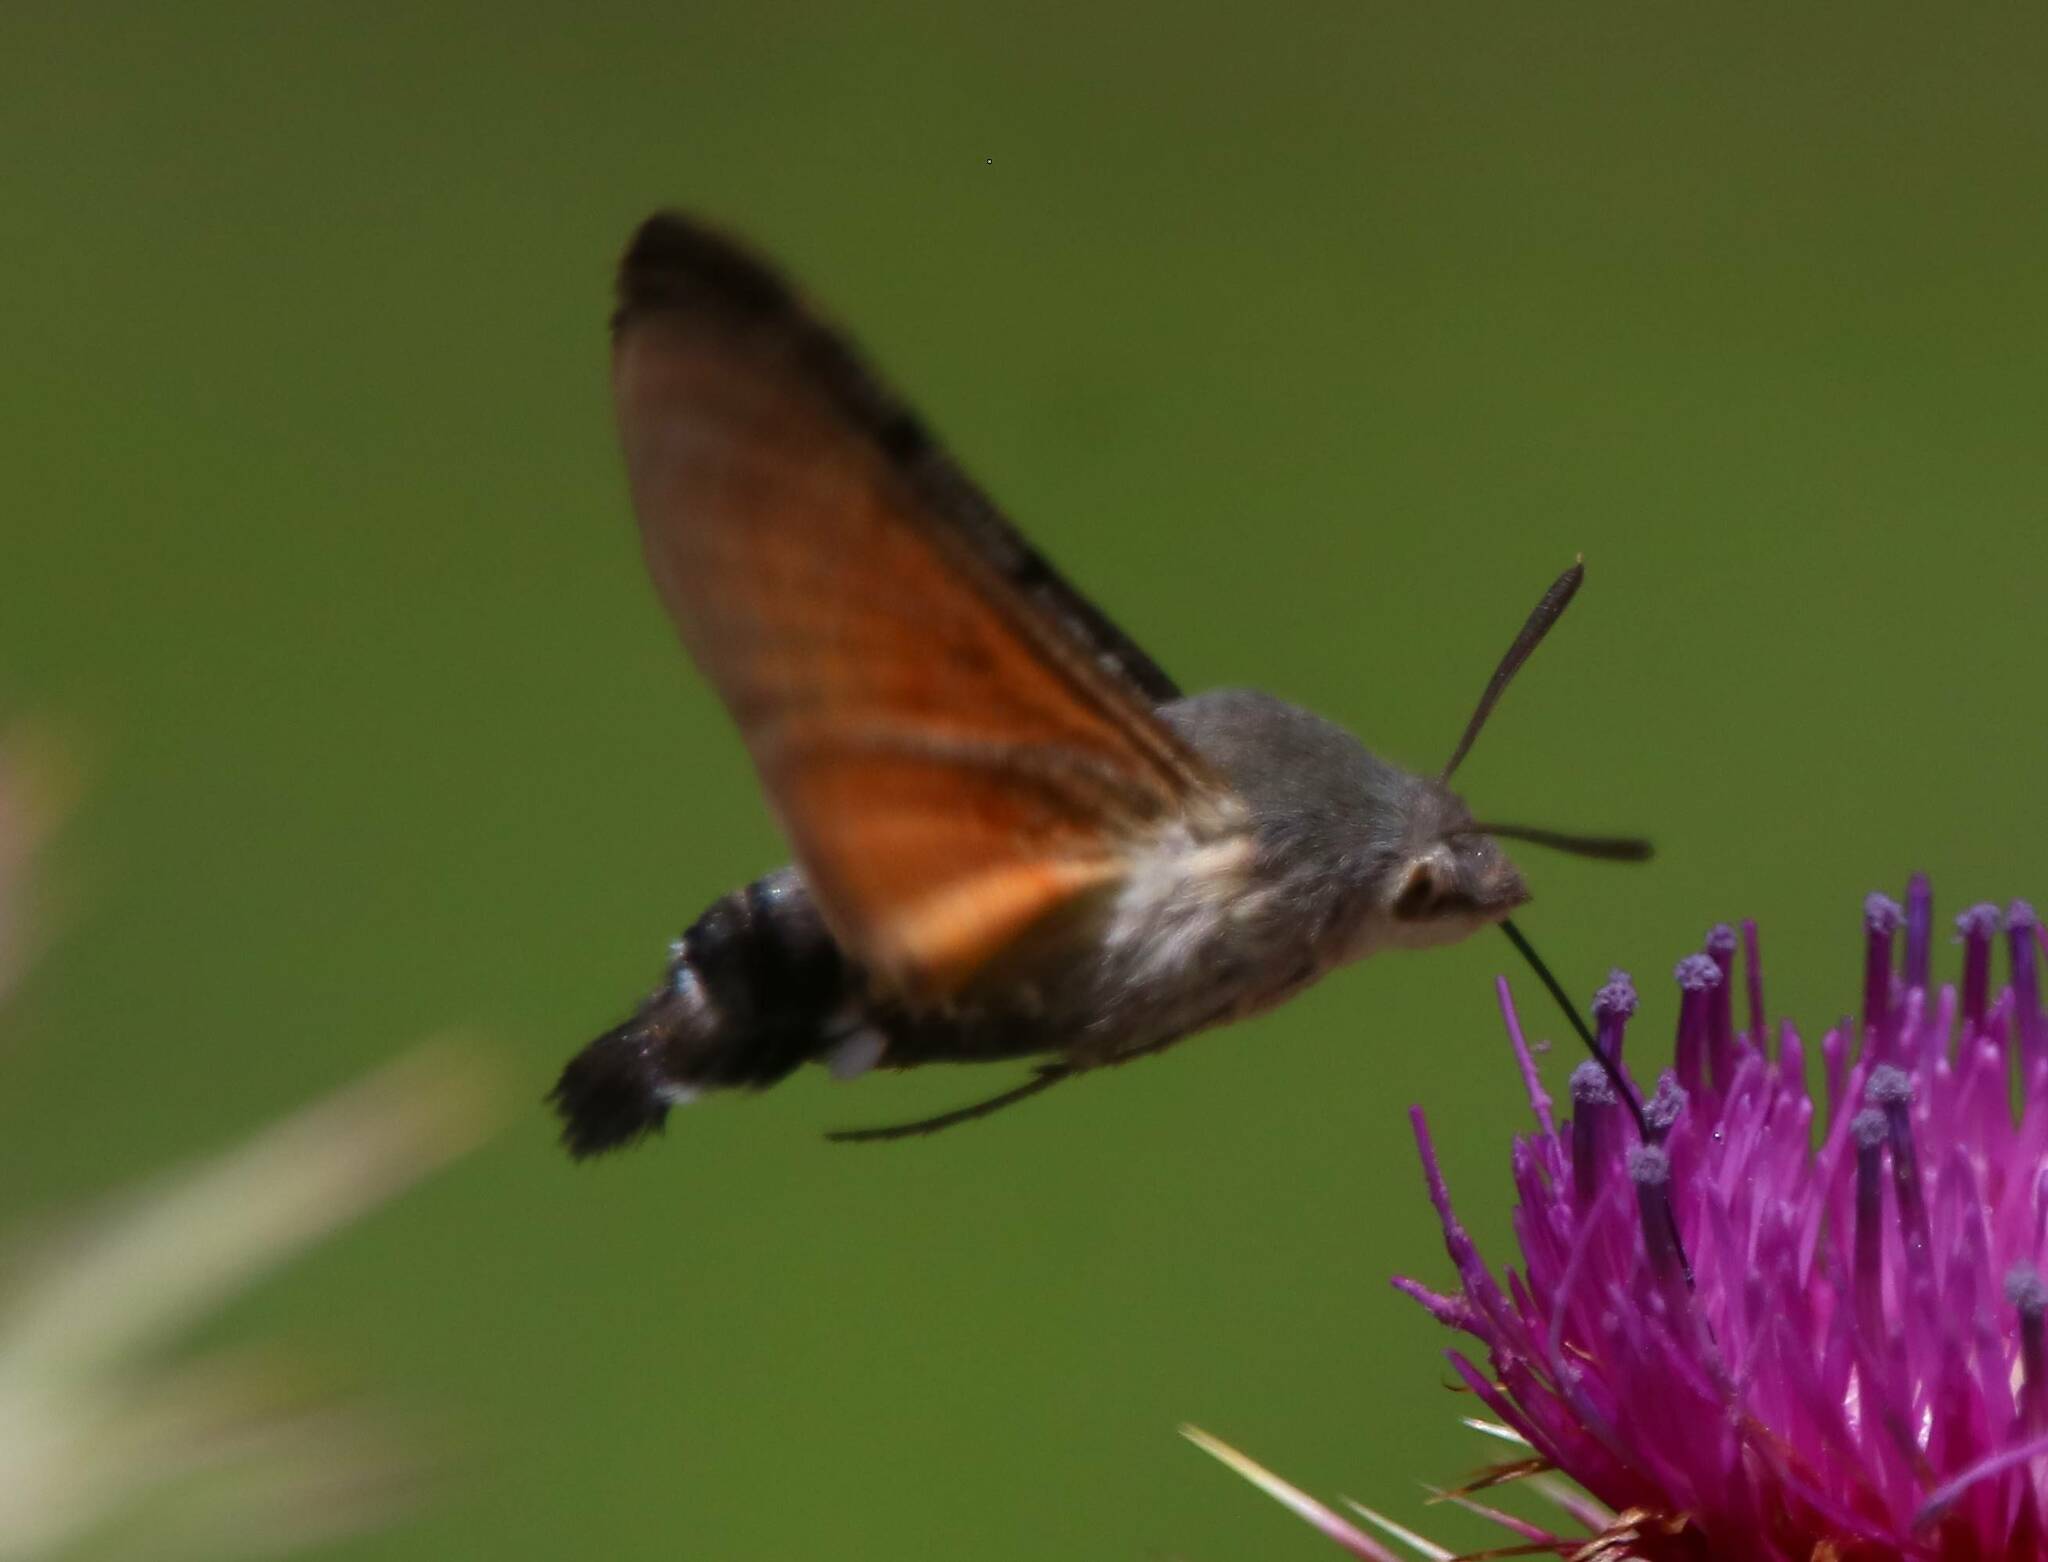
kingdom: Animalia
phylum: Arthropoda
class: Insecta
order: Lepidoptera
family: Sphingidae
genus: Macroglossum
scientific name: Macroglossum stellatarum
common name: Humming-bird hawk-moth
